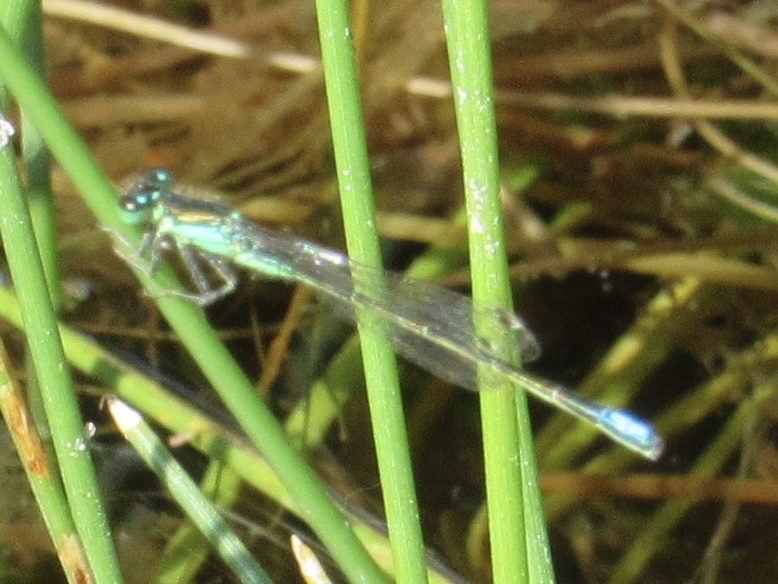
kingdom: Animalia
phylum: Arthropoda
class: Insecta
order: Odonata
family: Coenagrionidae
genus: Ischnura
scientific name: Ischnura denticollis
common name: Black-fronted forktail
